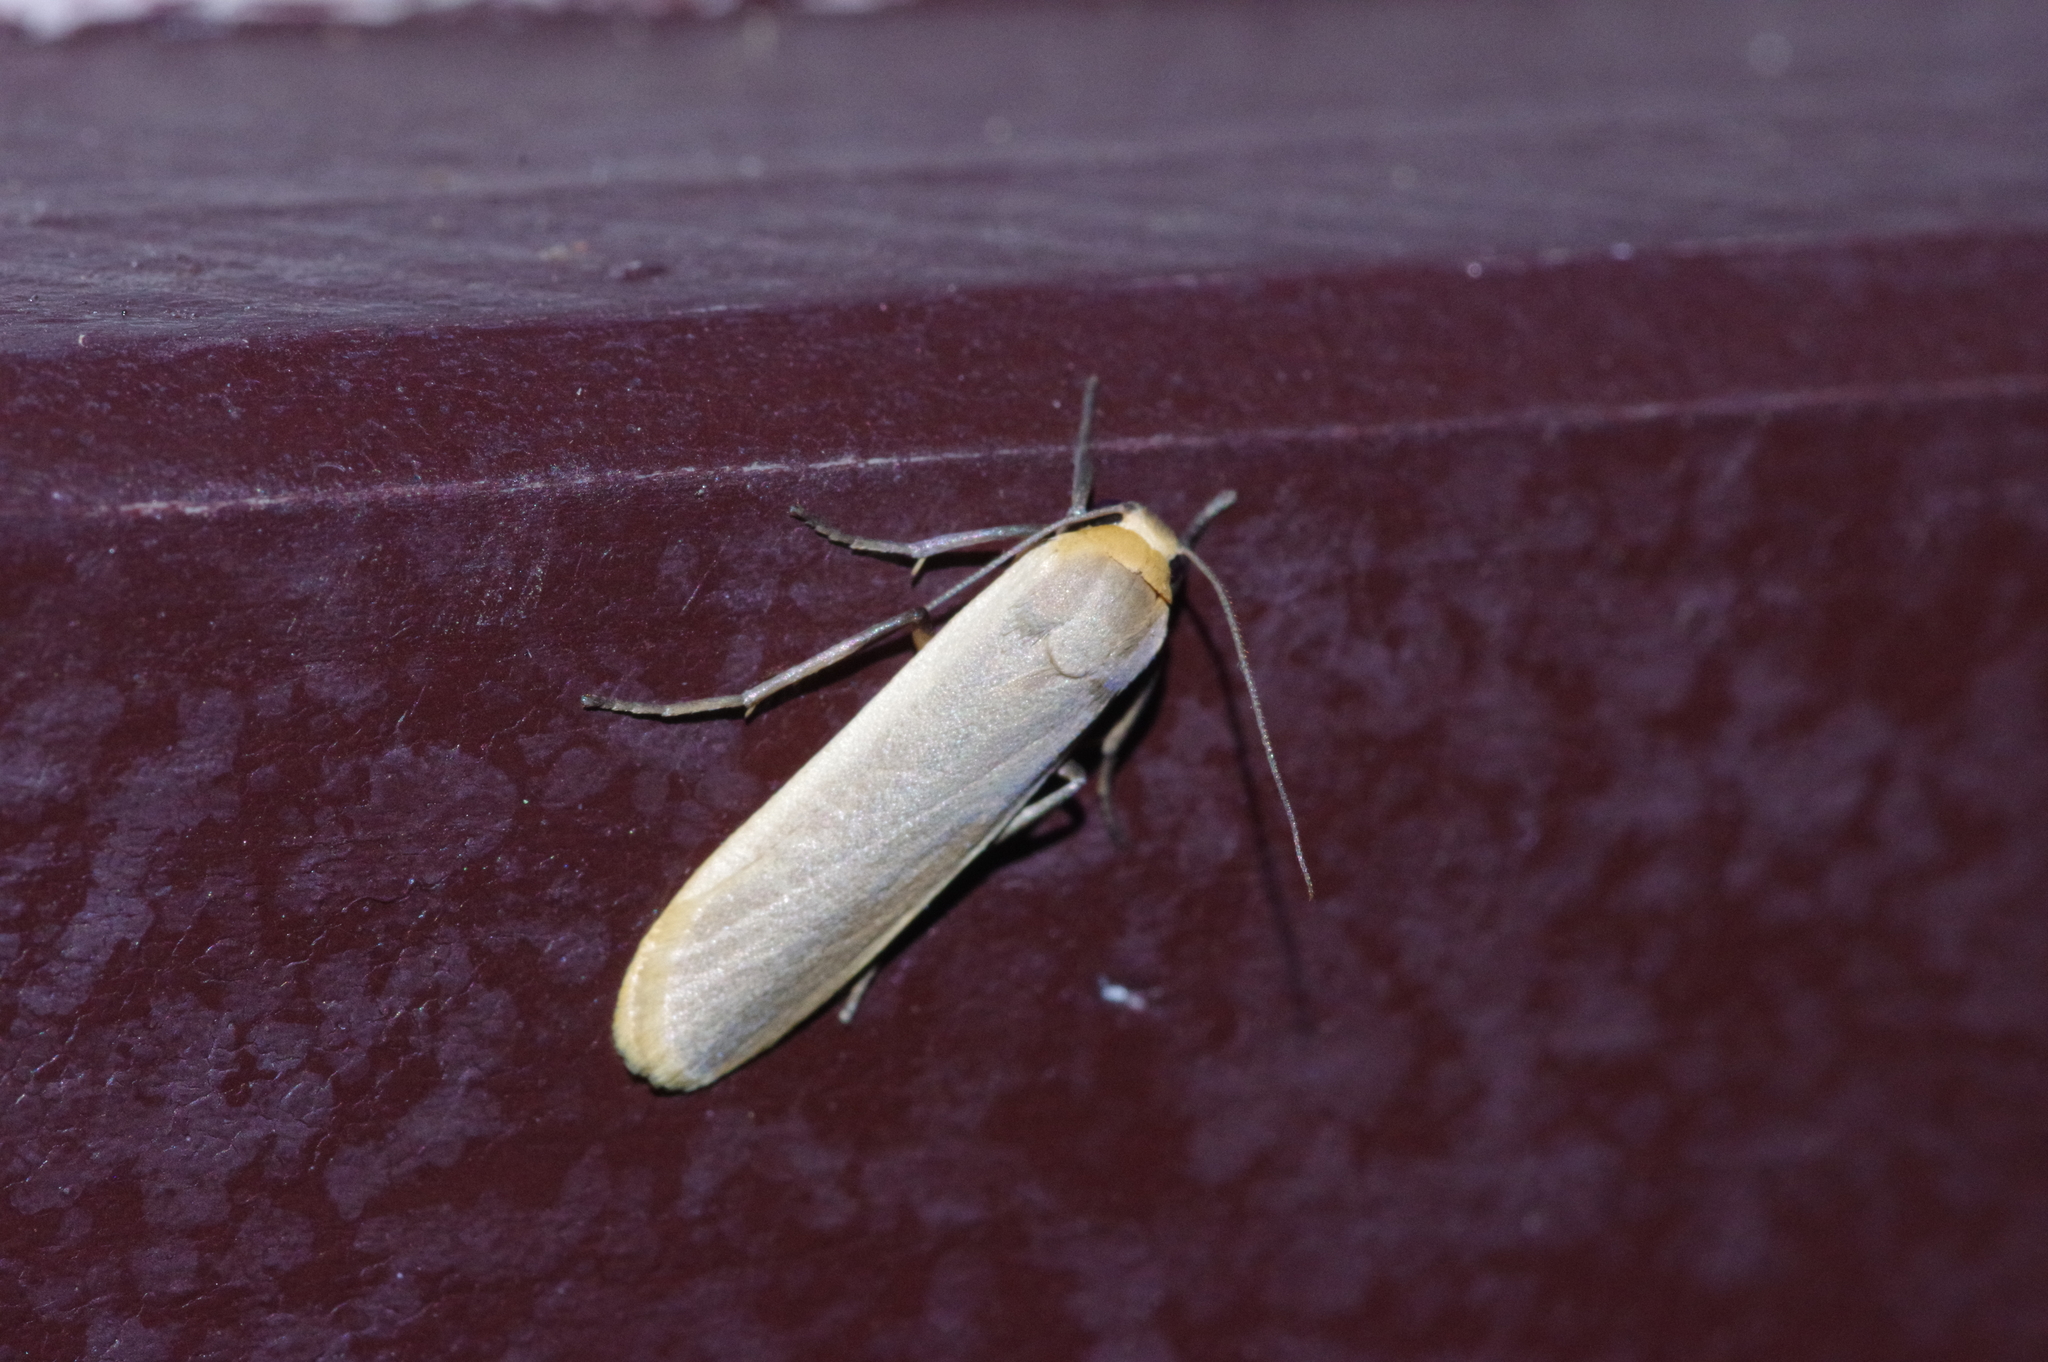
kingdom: Animalia
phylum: Arthropoda
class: Insecta
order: Lepidoptera
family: Erebidae
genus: Brunia
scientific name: Brunia antica
